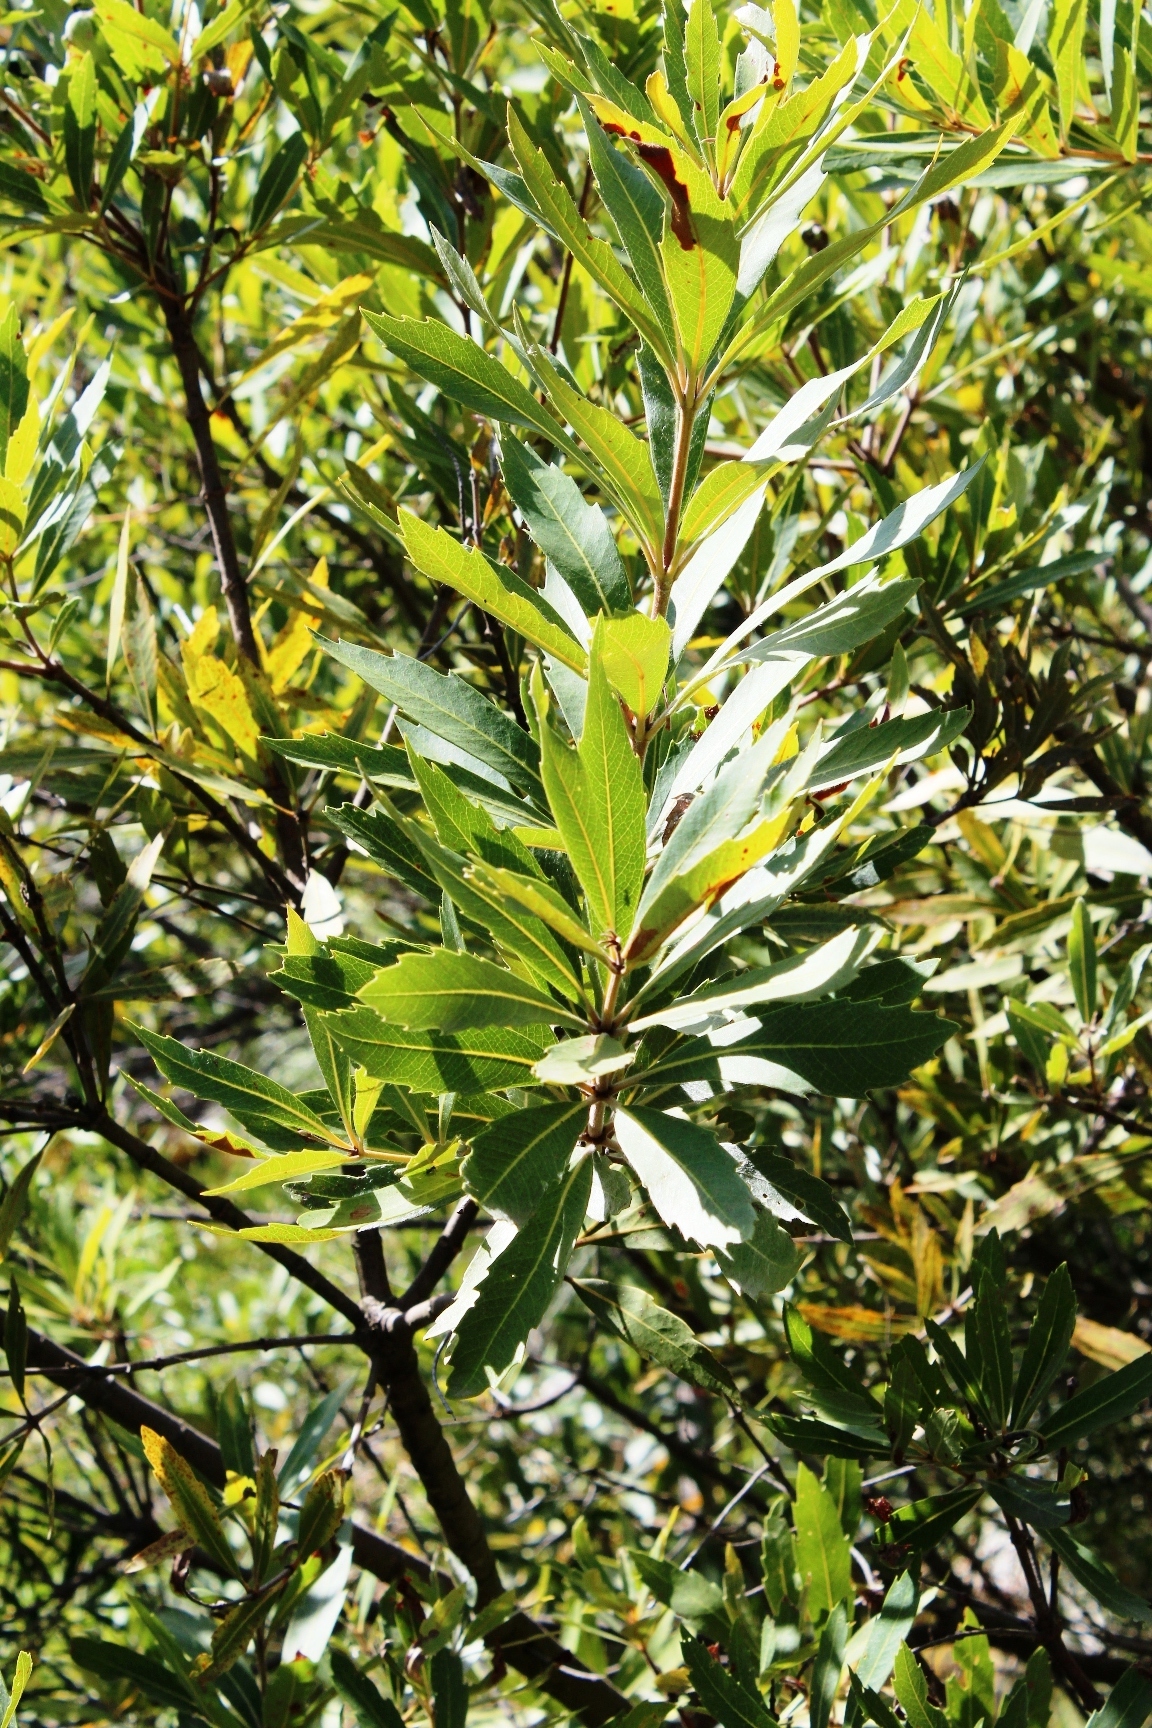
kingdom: Plantae
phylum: Tracheophyta
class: Magnoliopsida
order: Proteales
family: Proteaceae
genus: Brabejum
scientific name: Brabejum stellatifolium
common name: Wild almond
